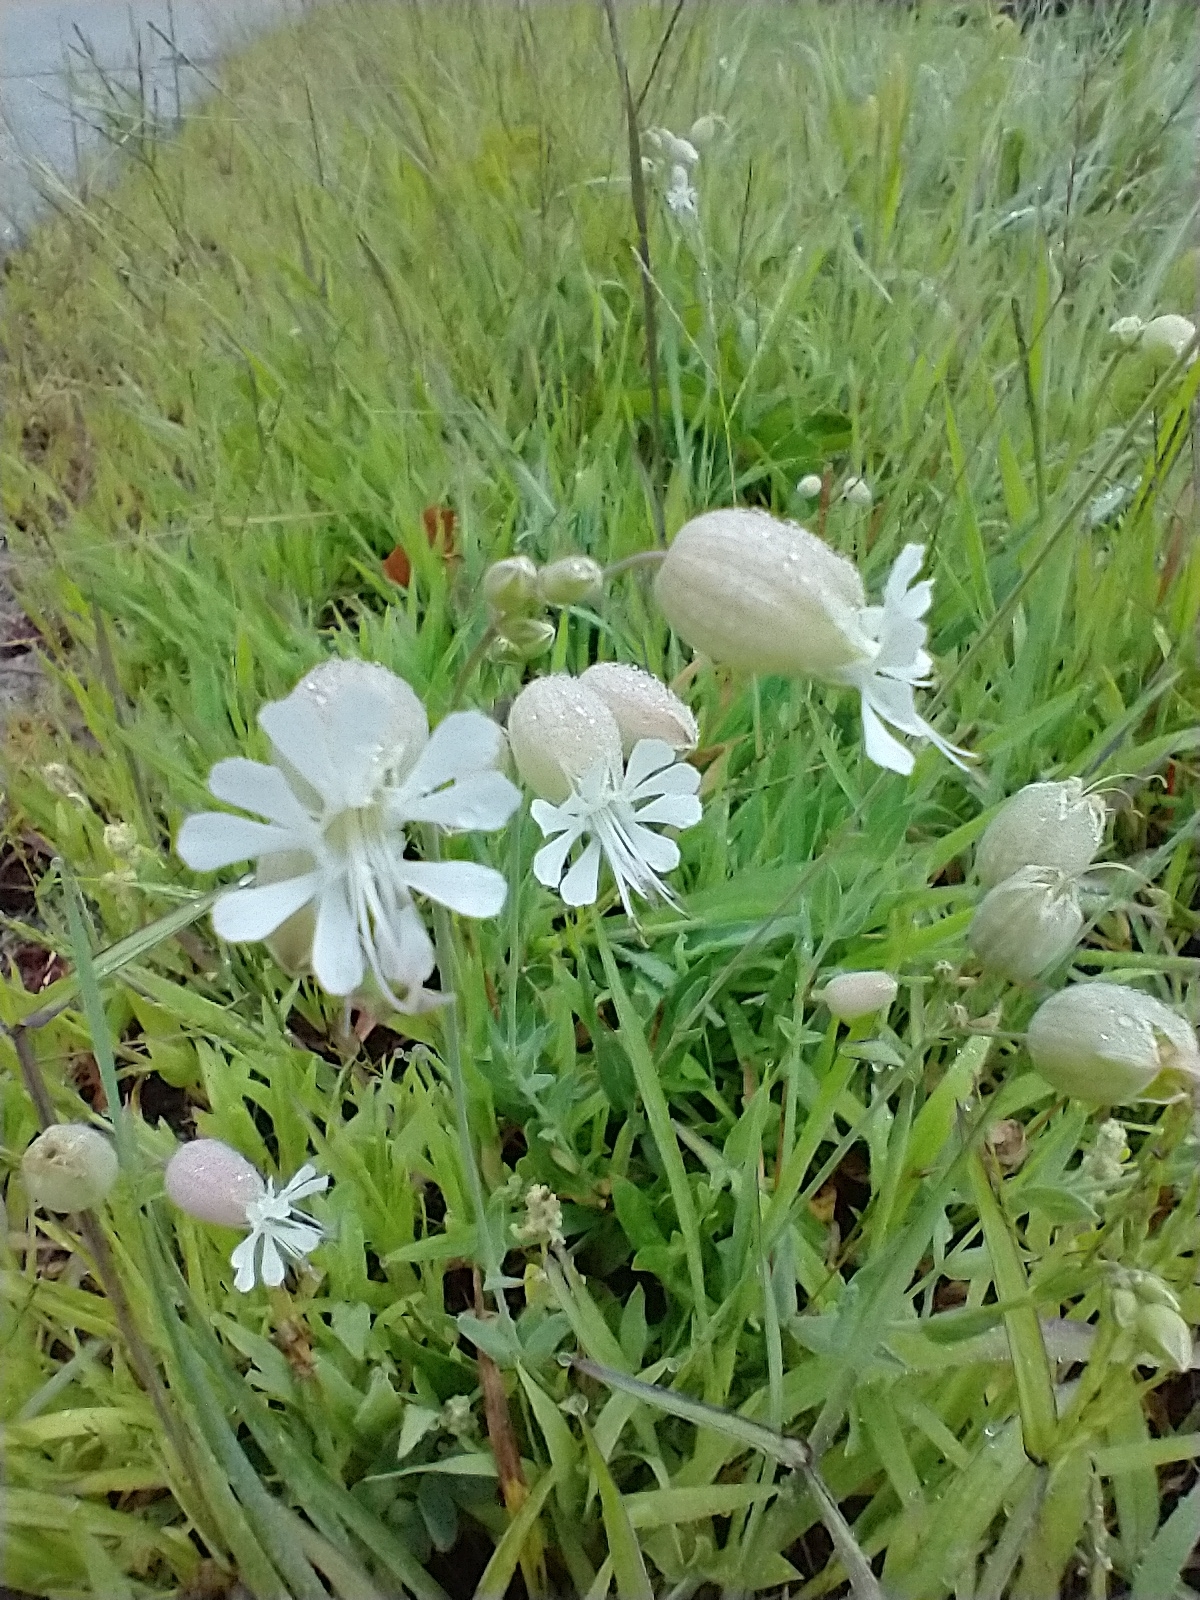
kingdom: Plantae
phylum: Tracheophyta
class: Magnoliopsida
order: Caryophyllales
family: Caryophyllaceae
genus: Silene
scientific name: Silene vulgaris
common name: Bladder campion
